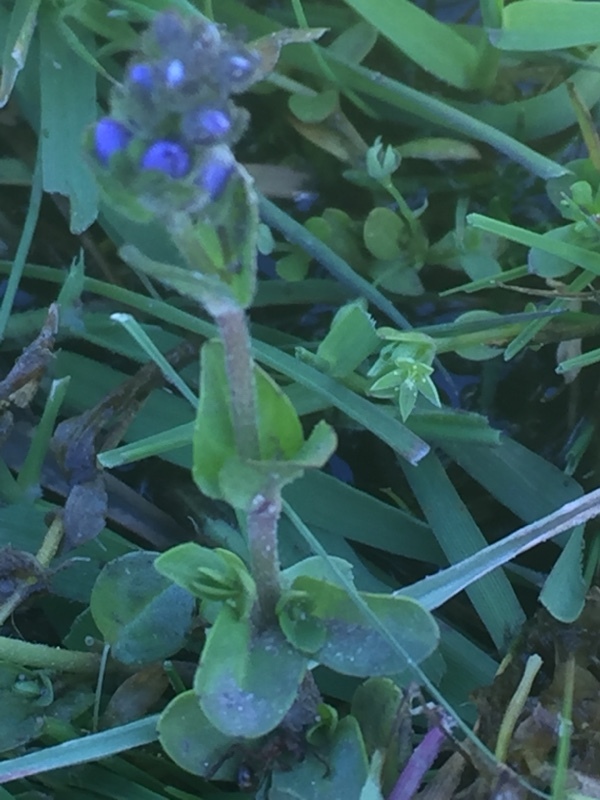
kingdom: Plantae
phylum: Tracheophyta
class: Magnoliopsida
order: Lamiales
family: Plantaginaceae
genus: Veronica
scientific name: Veronica serpyllifolia
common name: Thyme-leaved speedwell
